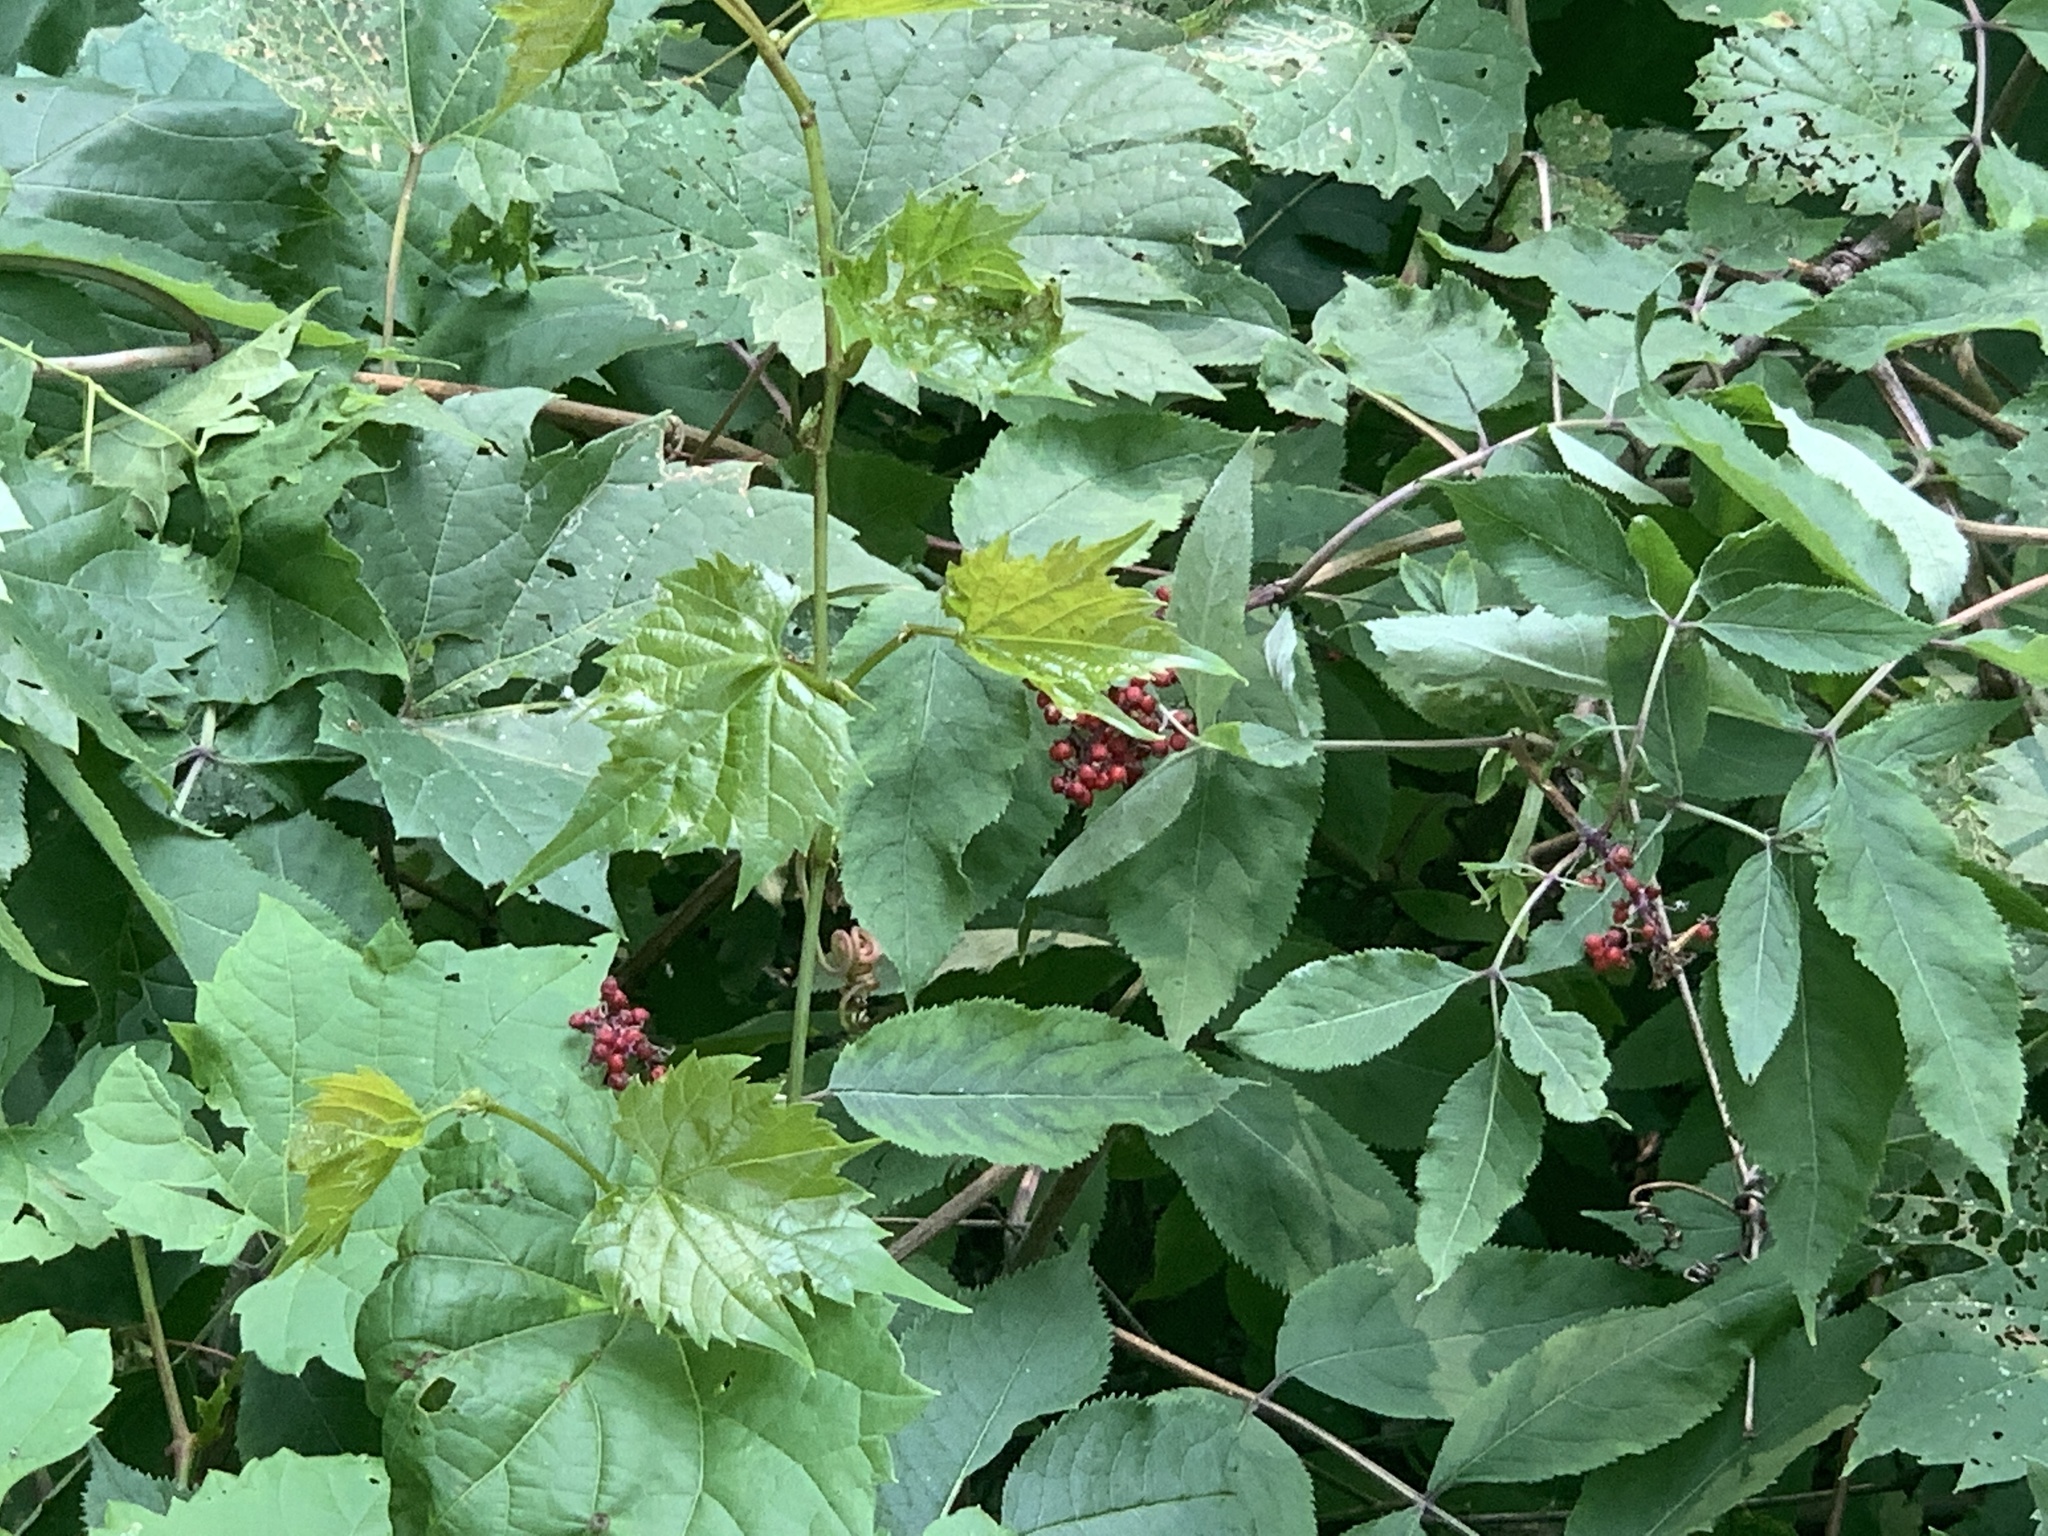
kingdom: Plantae
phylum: Tracheophyta
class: Magnoliopsida
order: Dipsacales
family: Viburnaceae
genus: Sambucus
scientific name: Sambucus racemosa
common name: Red-berried elder
